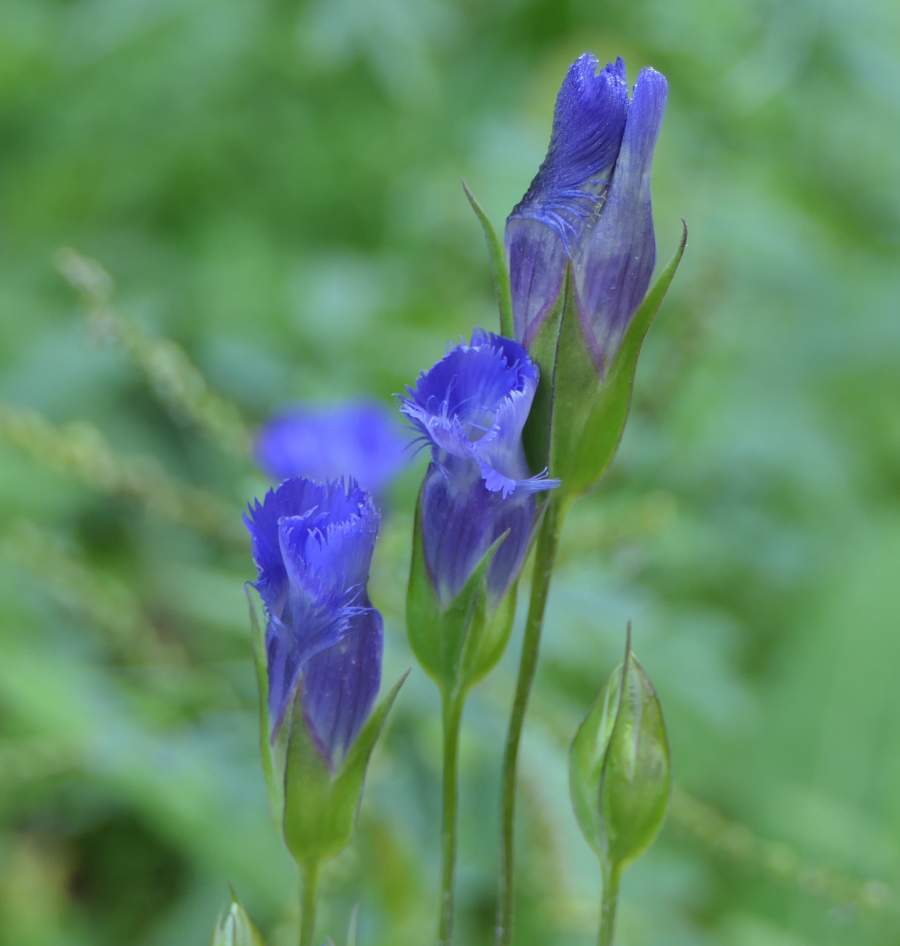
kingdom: Plantae
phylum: Tracheophyta
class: Magnoliopsida
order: Gentianales
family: Gentianaceae
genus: Gentianopsis
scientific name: Gentianopsis crinita
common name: Fringed-gentian
